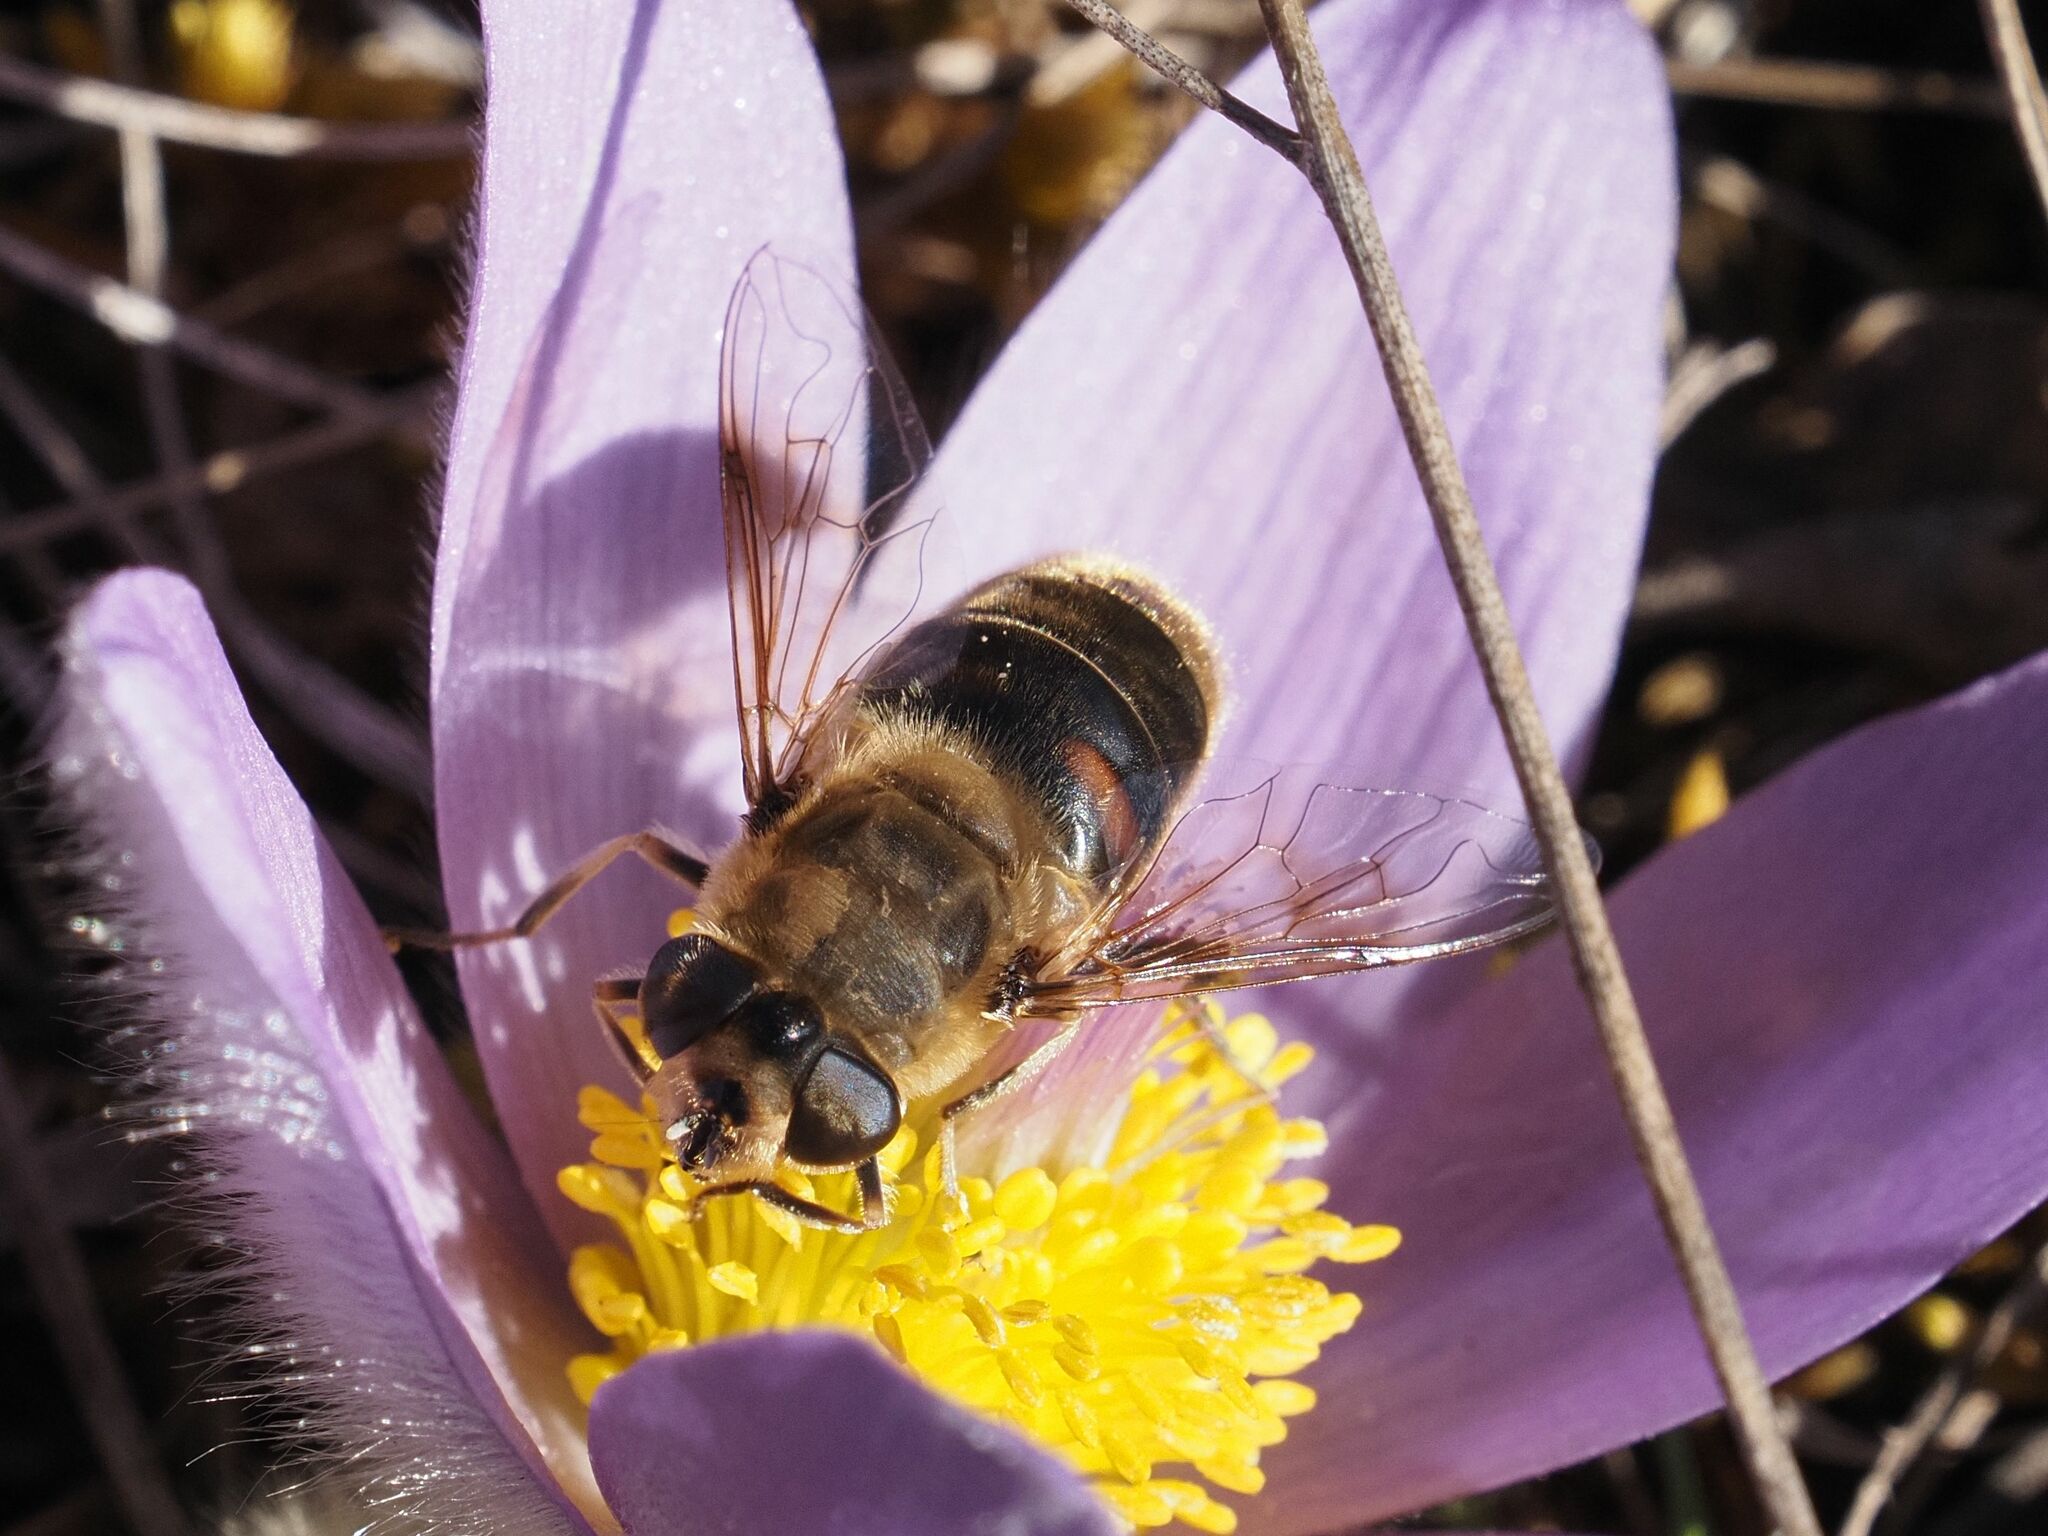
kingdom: Animalia
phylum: Arthropoda
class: Insecta
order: Diptera
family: Syrphidae
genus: Eristalis
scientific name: Eristalis tenax
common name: Drone fly
